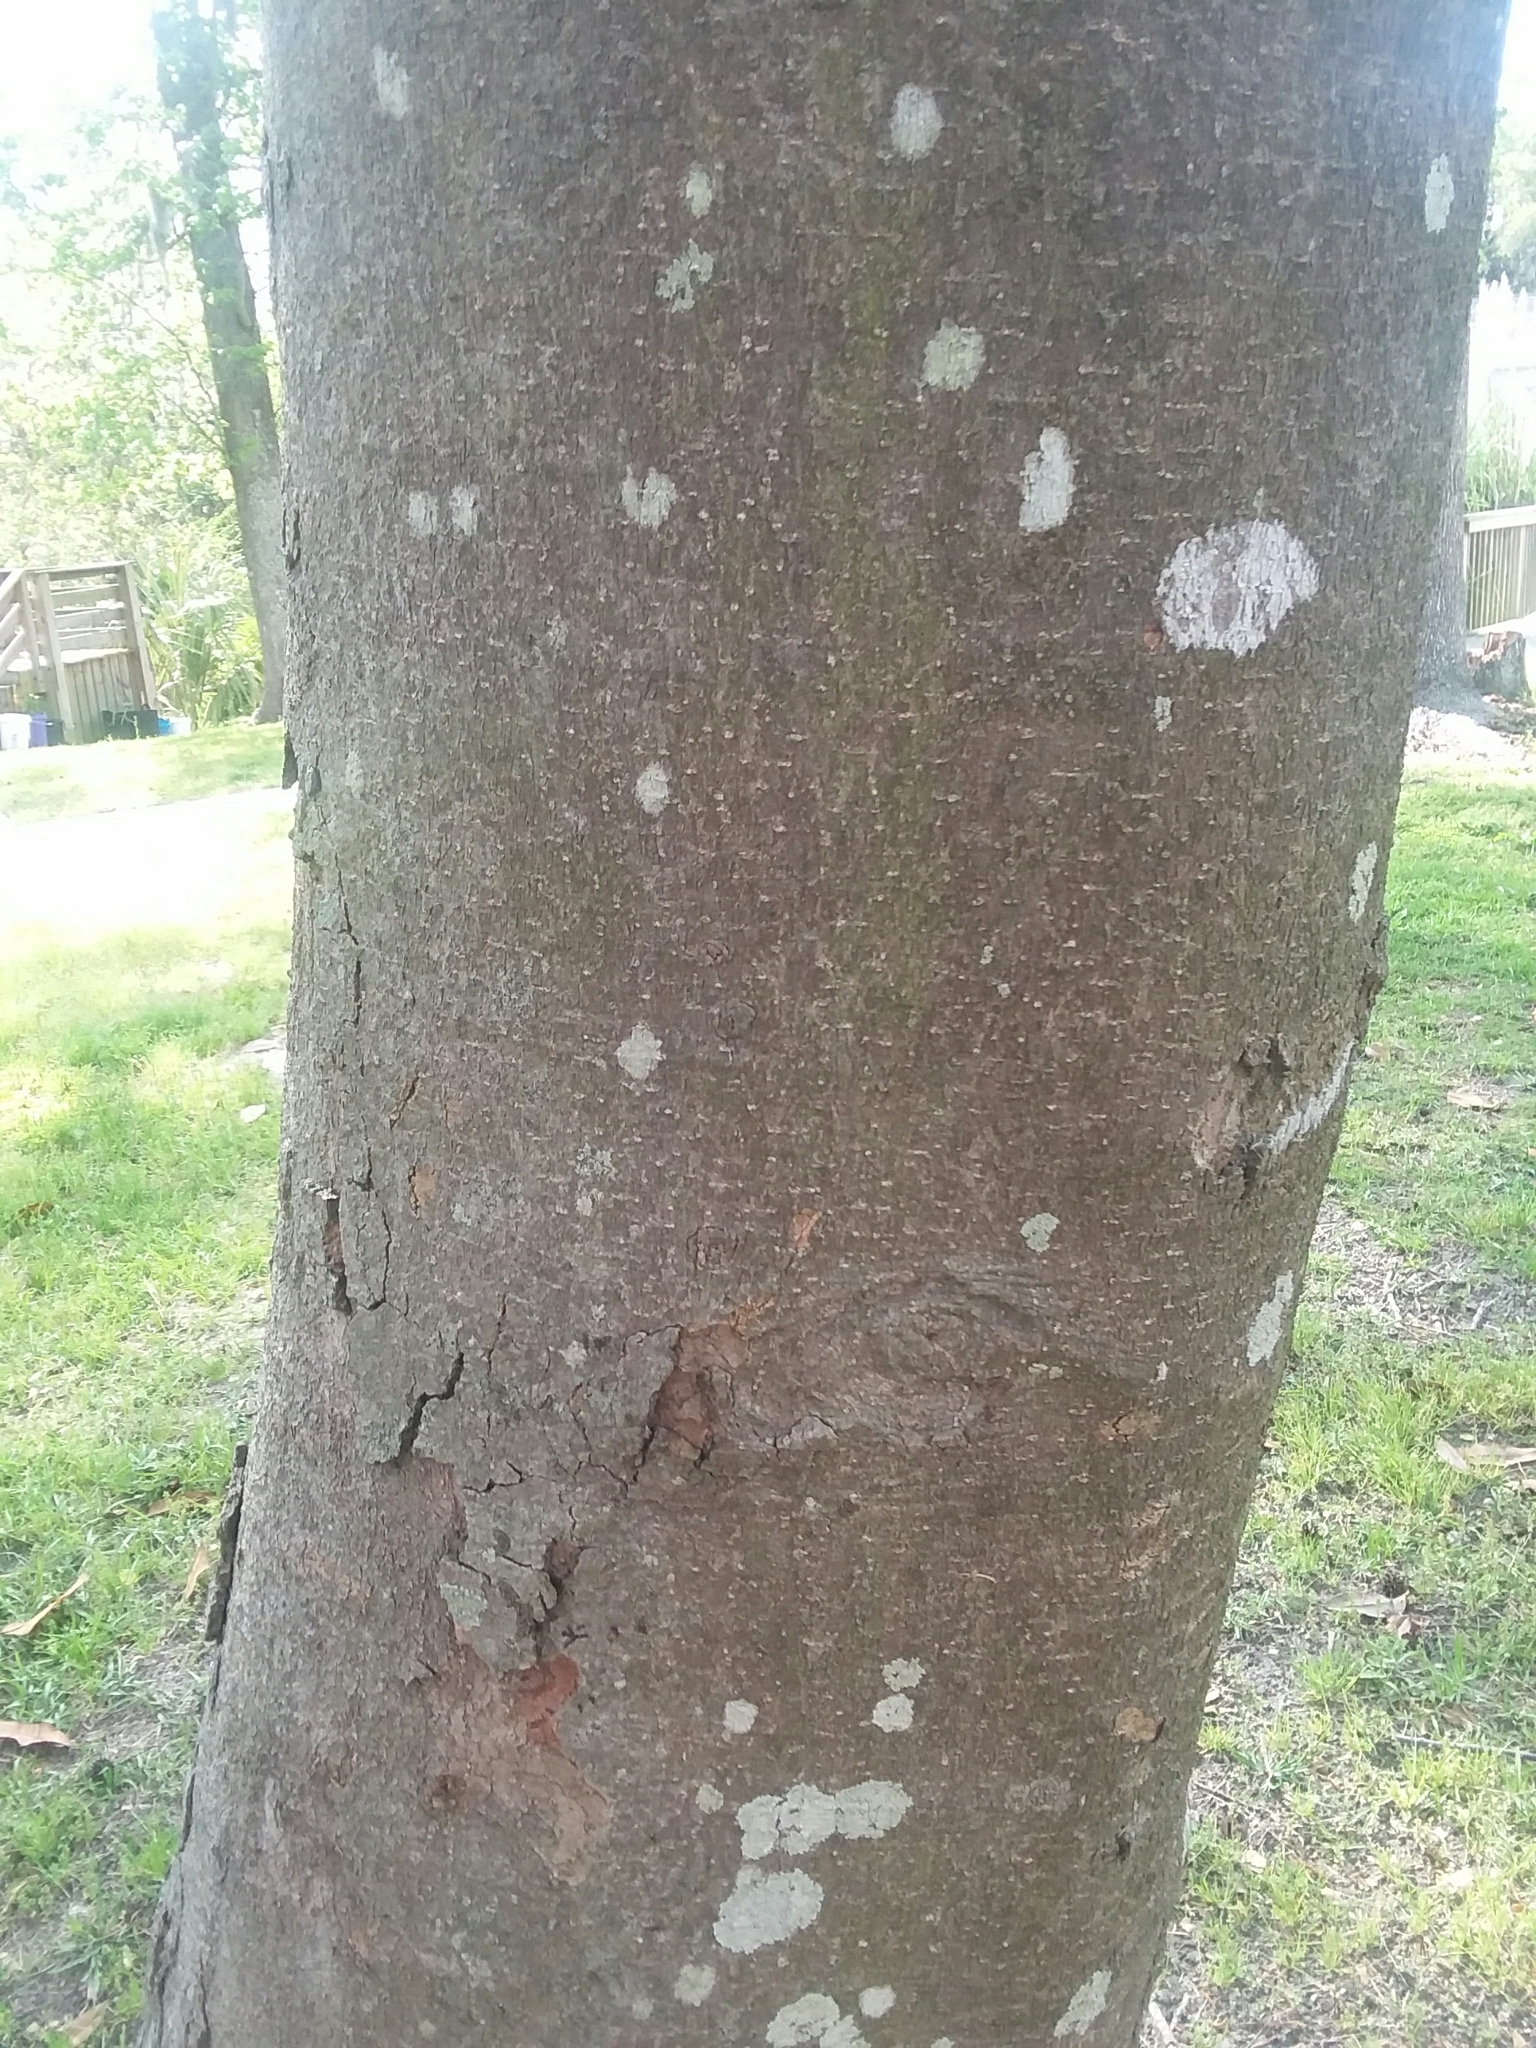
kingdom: Plantae
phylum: Tracheophyta
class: Magnoliopsida
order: Magnoliales
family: Magnoliaceae
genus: Magnolia
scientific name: Magnolia grandiflora
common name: Southern magnolia
